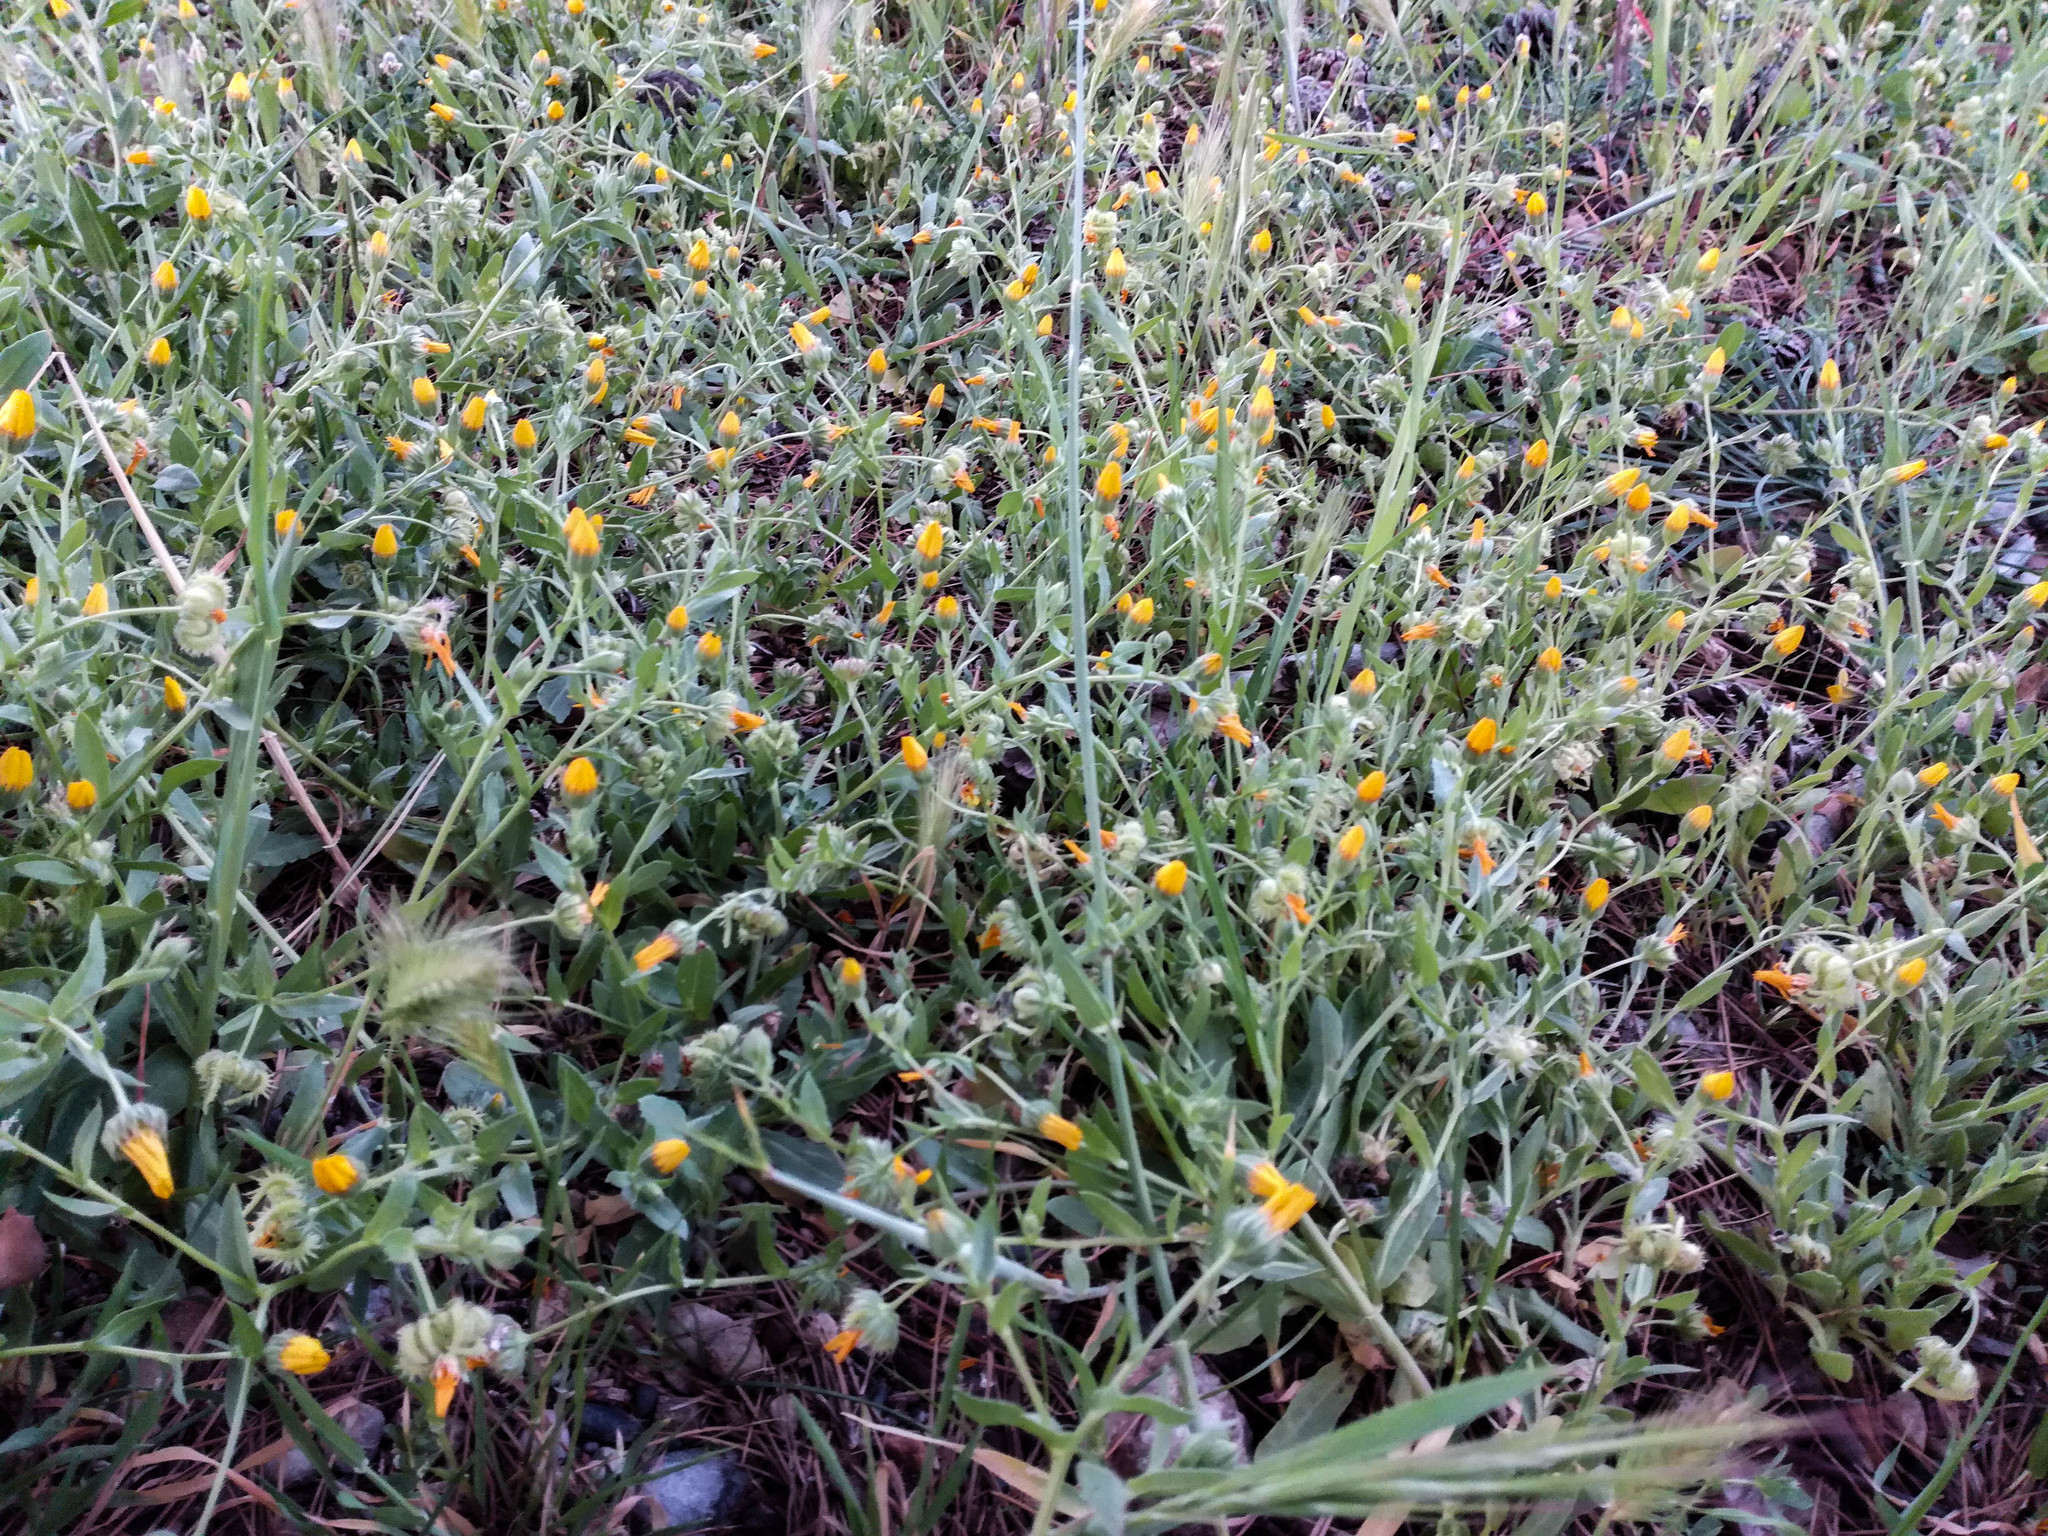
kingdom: Plantae
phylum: Tracheophyta
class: Magnoliopsida
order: Asterales
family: Asteraceae
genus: Calendula
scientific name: Calendula arvensis
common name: Field marigold
